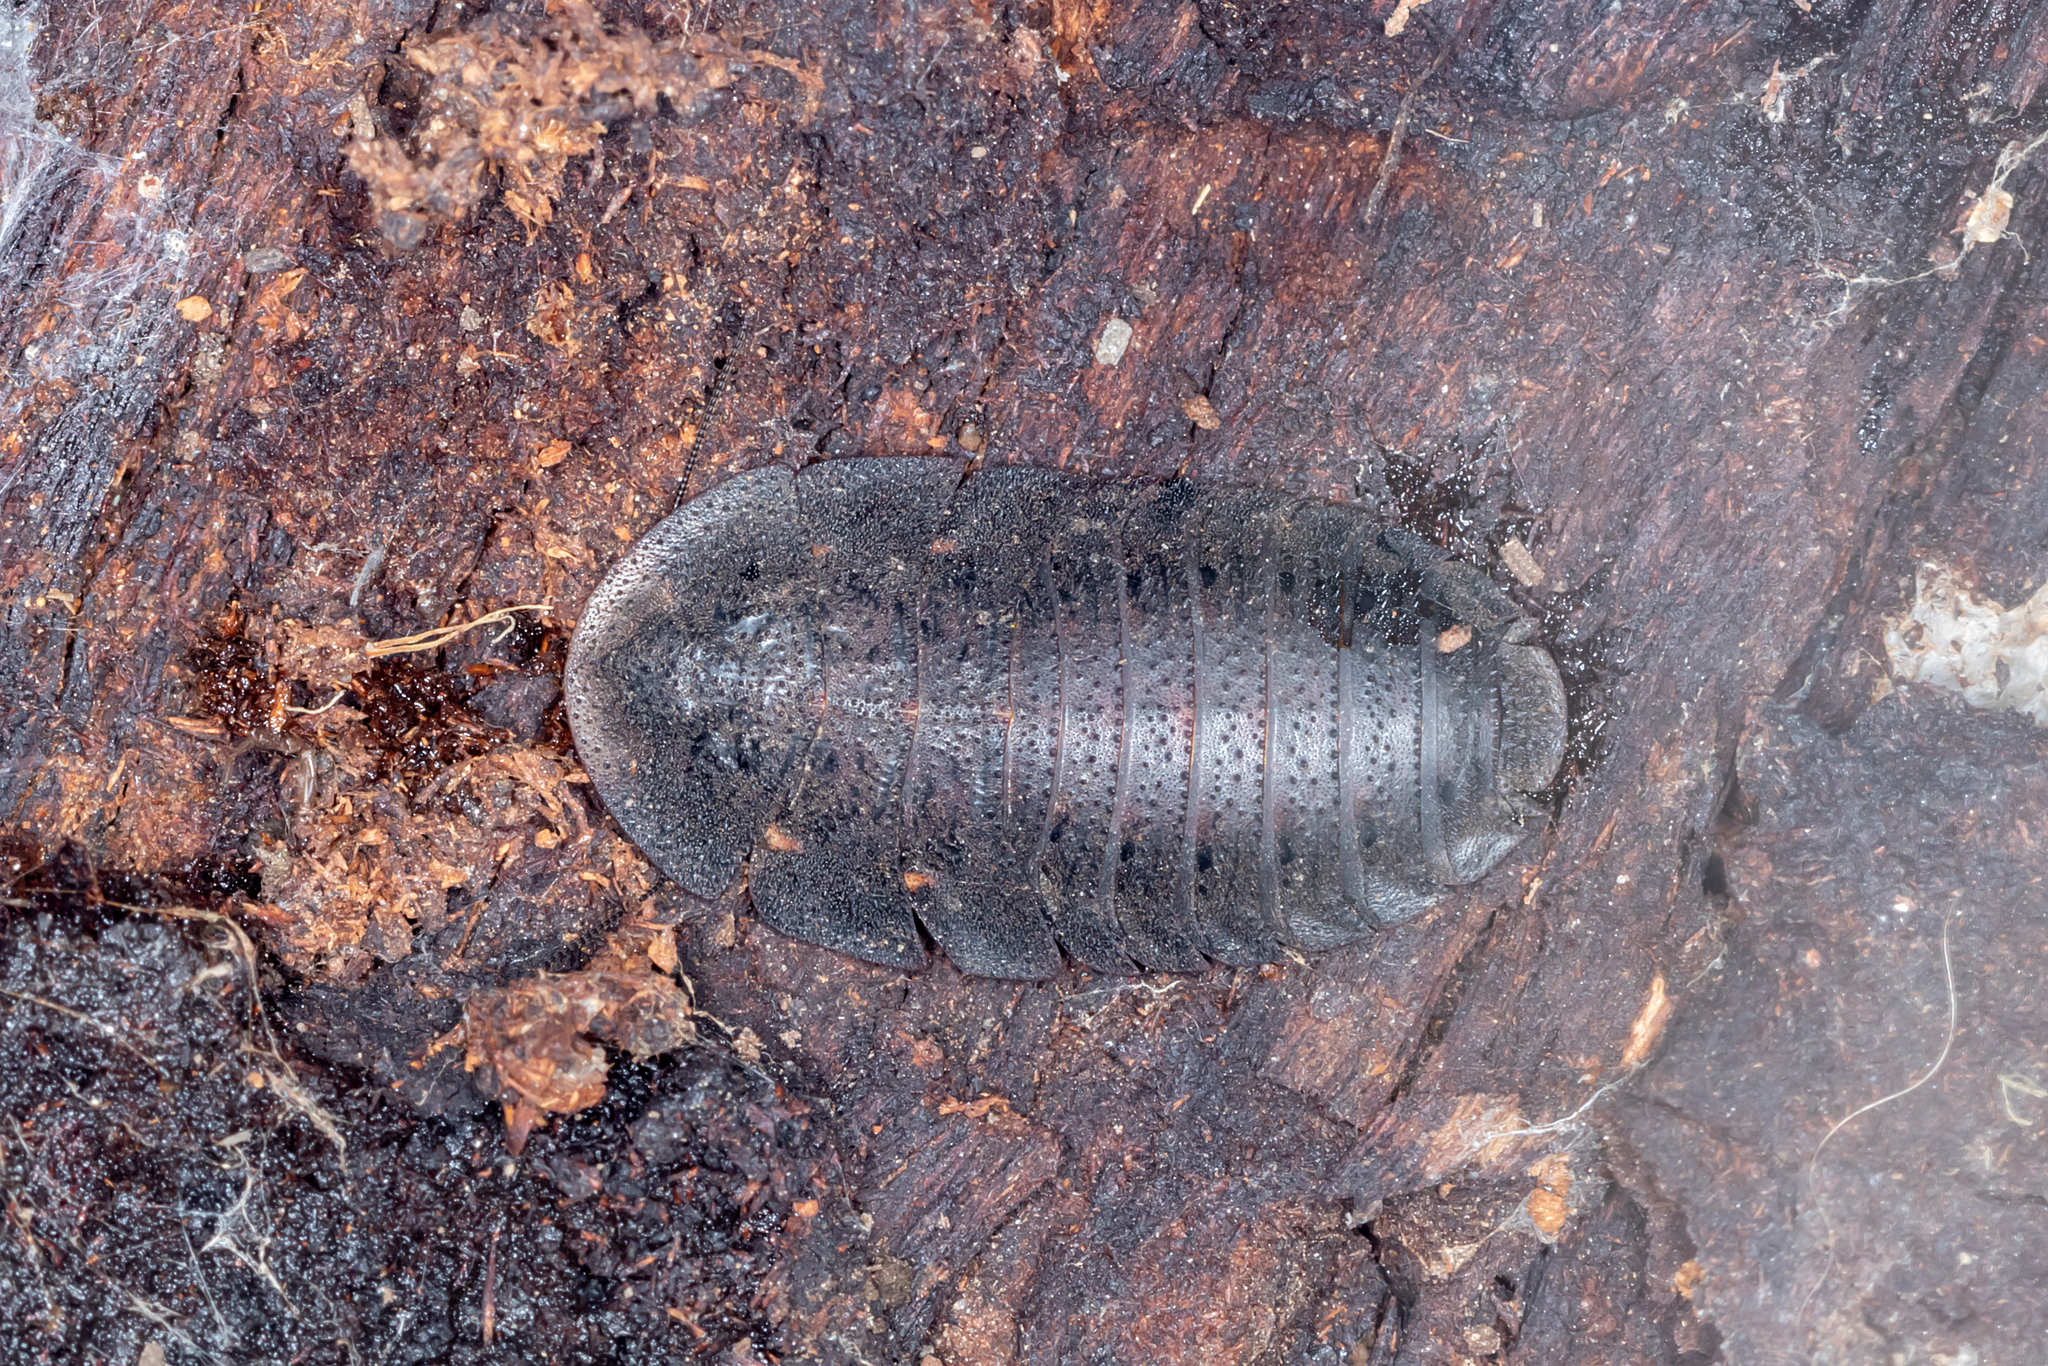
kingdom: Animalia
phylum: Arthropoda
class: Insecta
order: Blattodea
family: Blaberidae
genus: Laxta
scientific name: Laxta granicollis
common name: Bark cockroach
